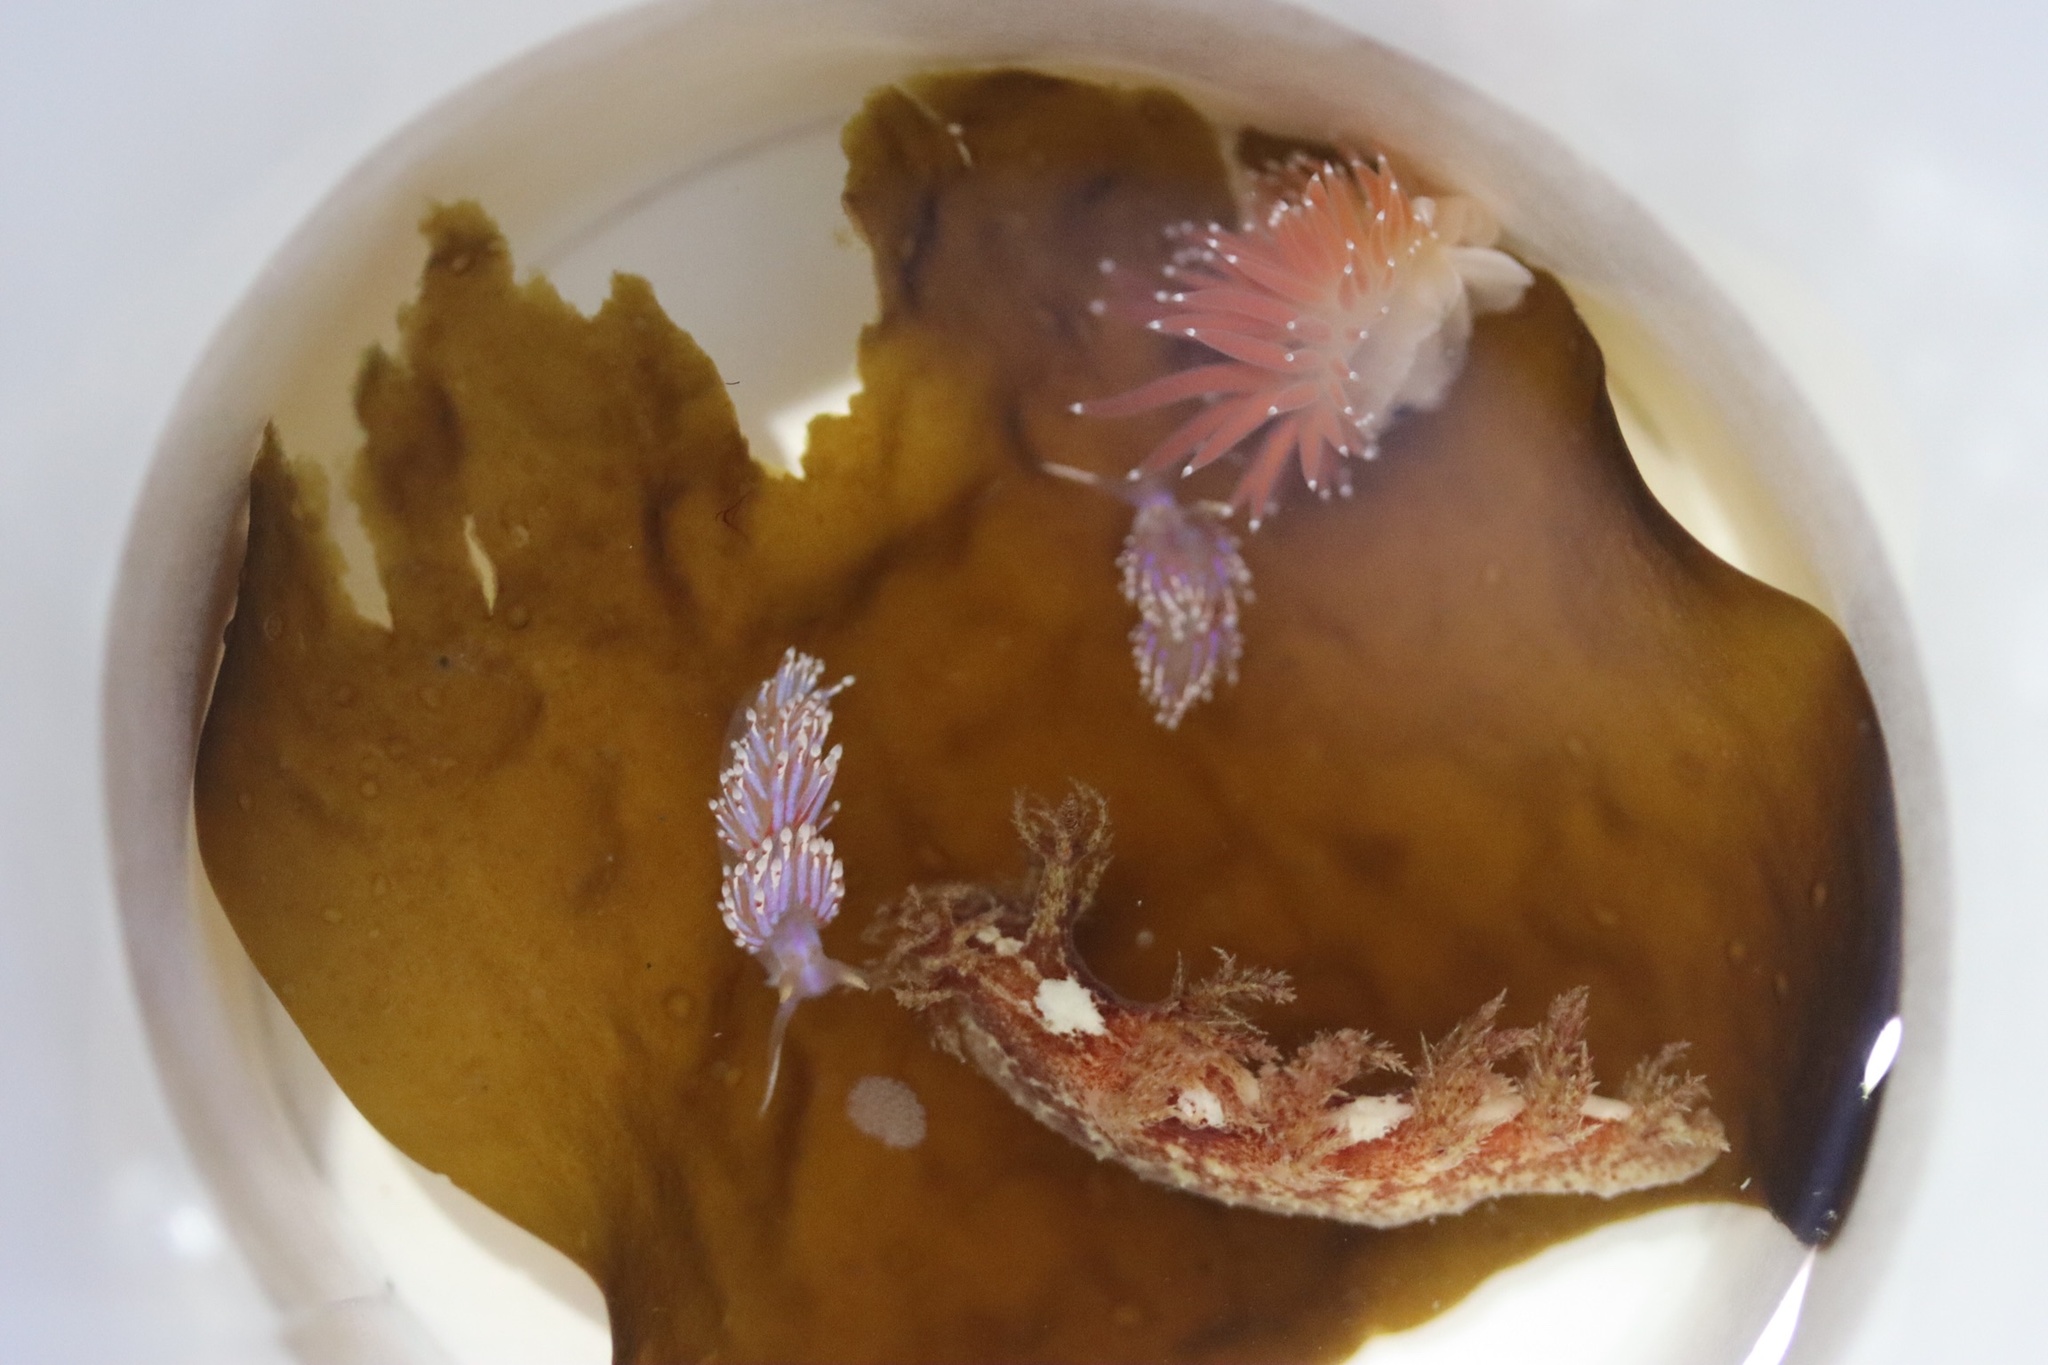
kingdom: Animalia
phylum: Mollusca
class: Gastropoda
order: Nudibranchia
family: Dendronotidae
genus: Dendronotus
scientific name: Dendronotus lacteus
